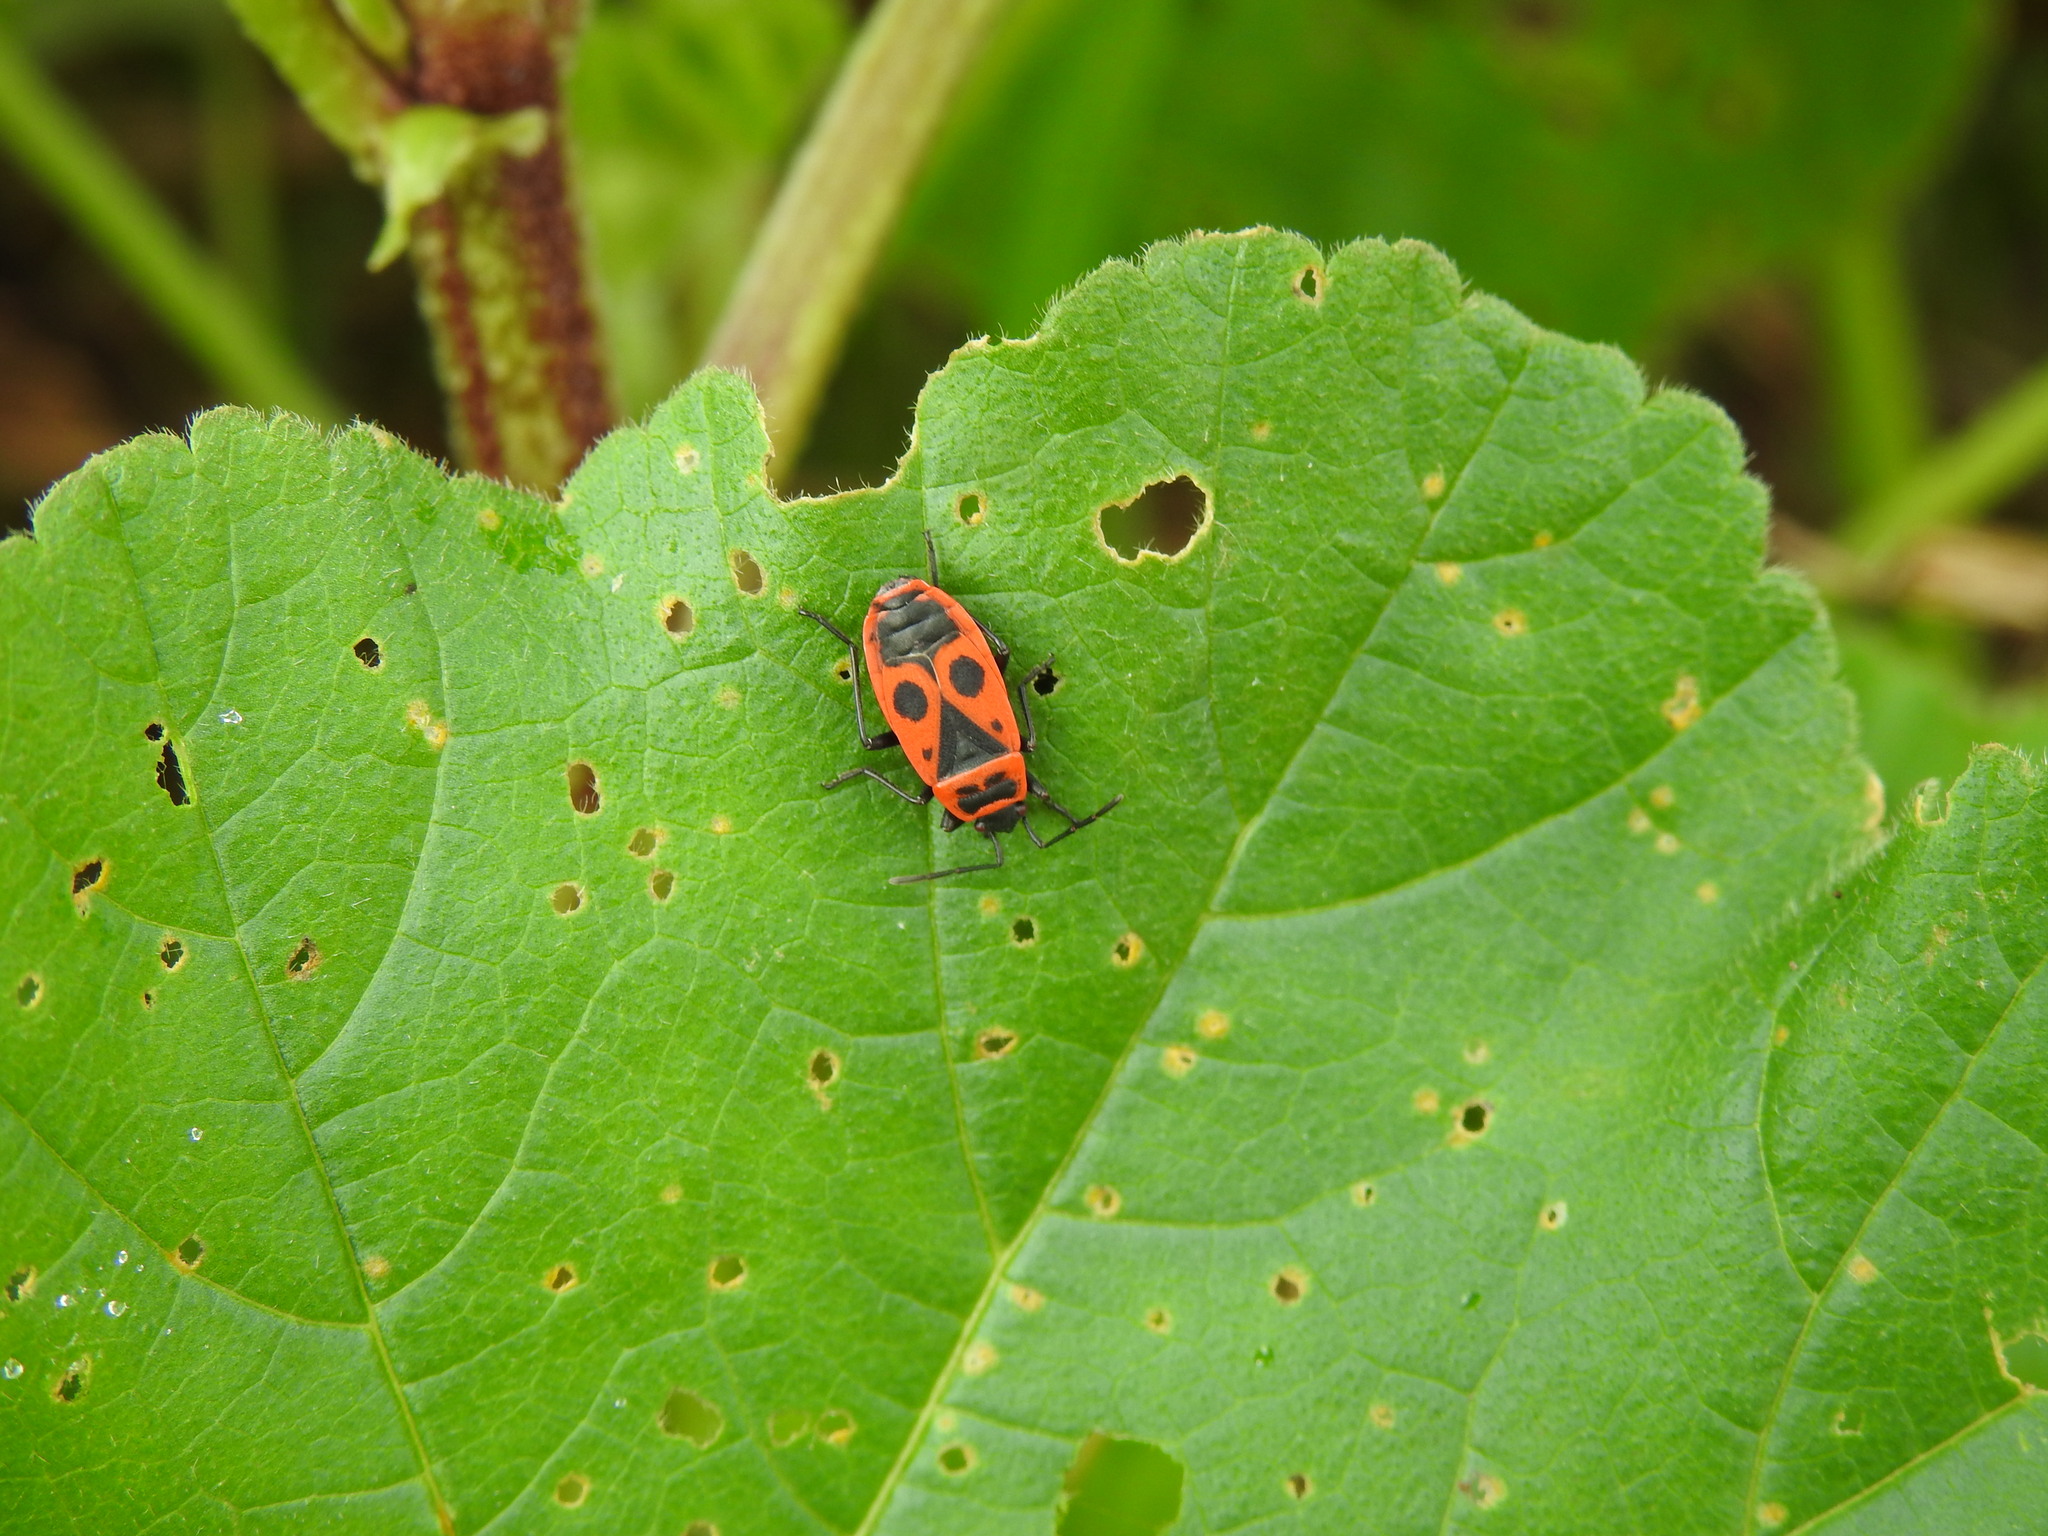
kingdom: Animalia
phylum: Arthropoda
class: Insecta
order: Hemiptera
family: Pyrrhocoridae
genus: Pyrrhocoris
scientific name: Pyrrhocoris apterus
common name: Firebug
